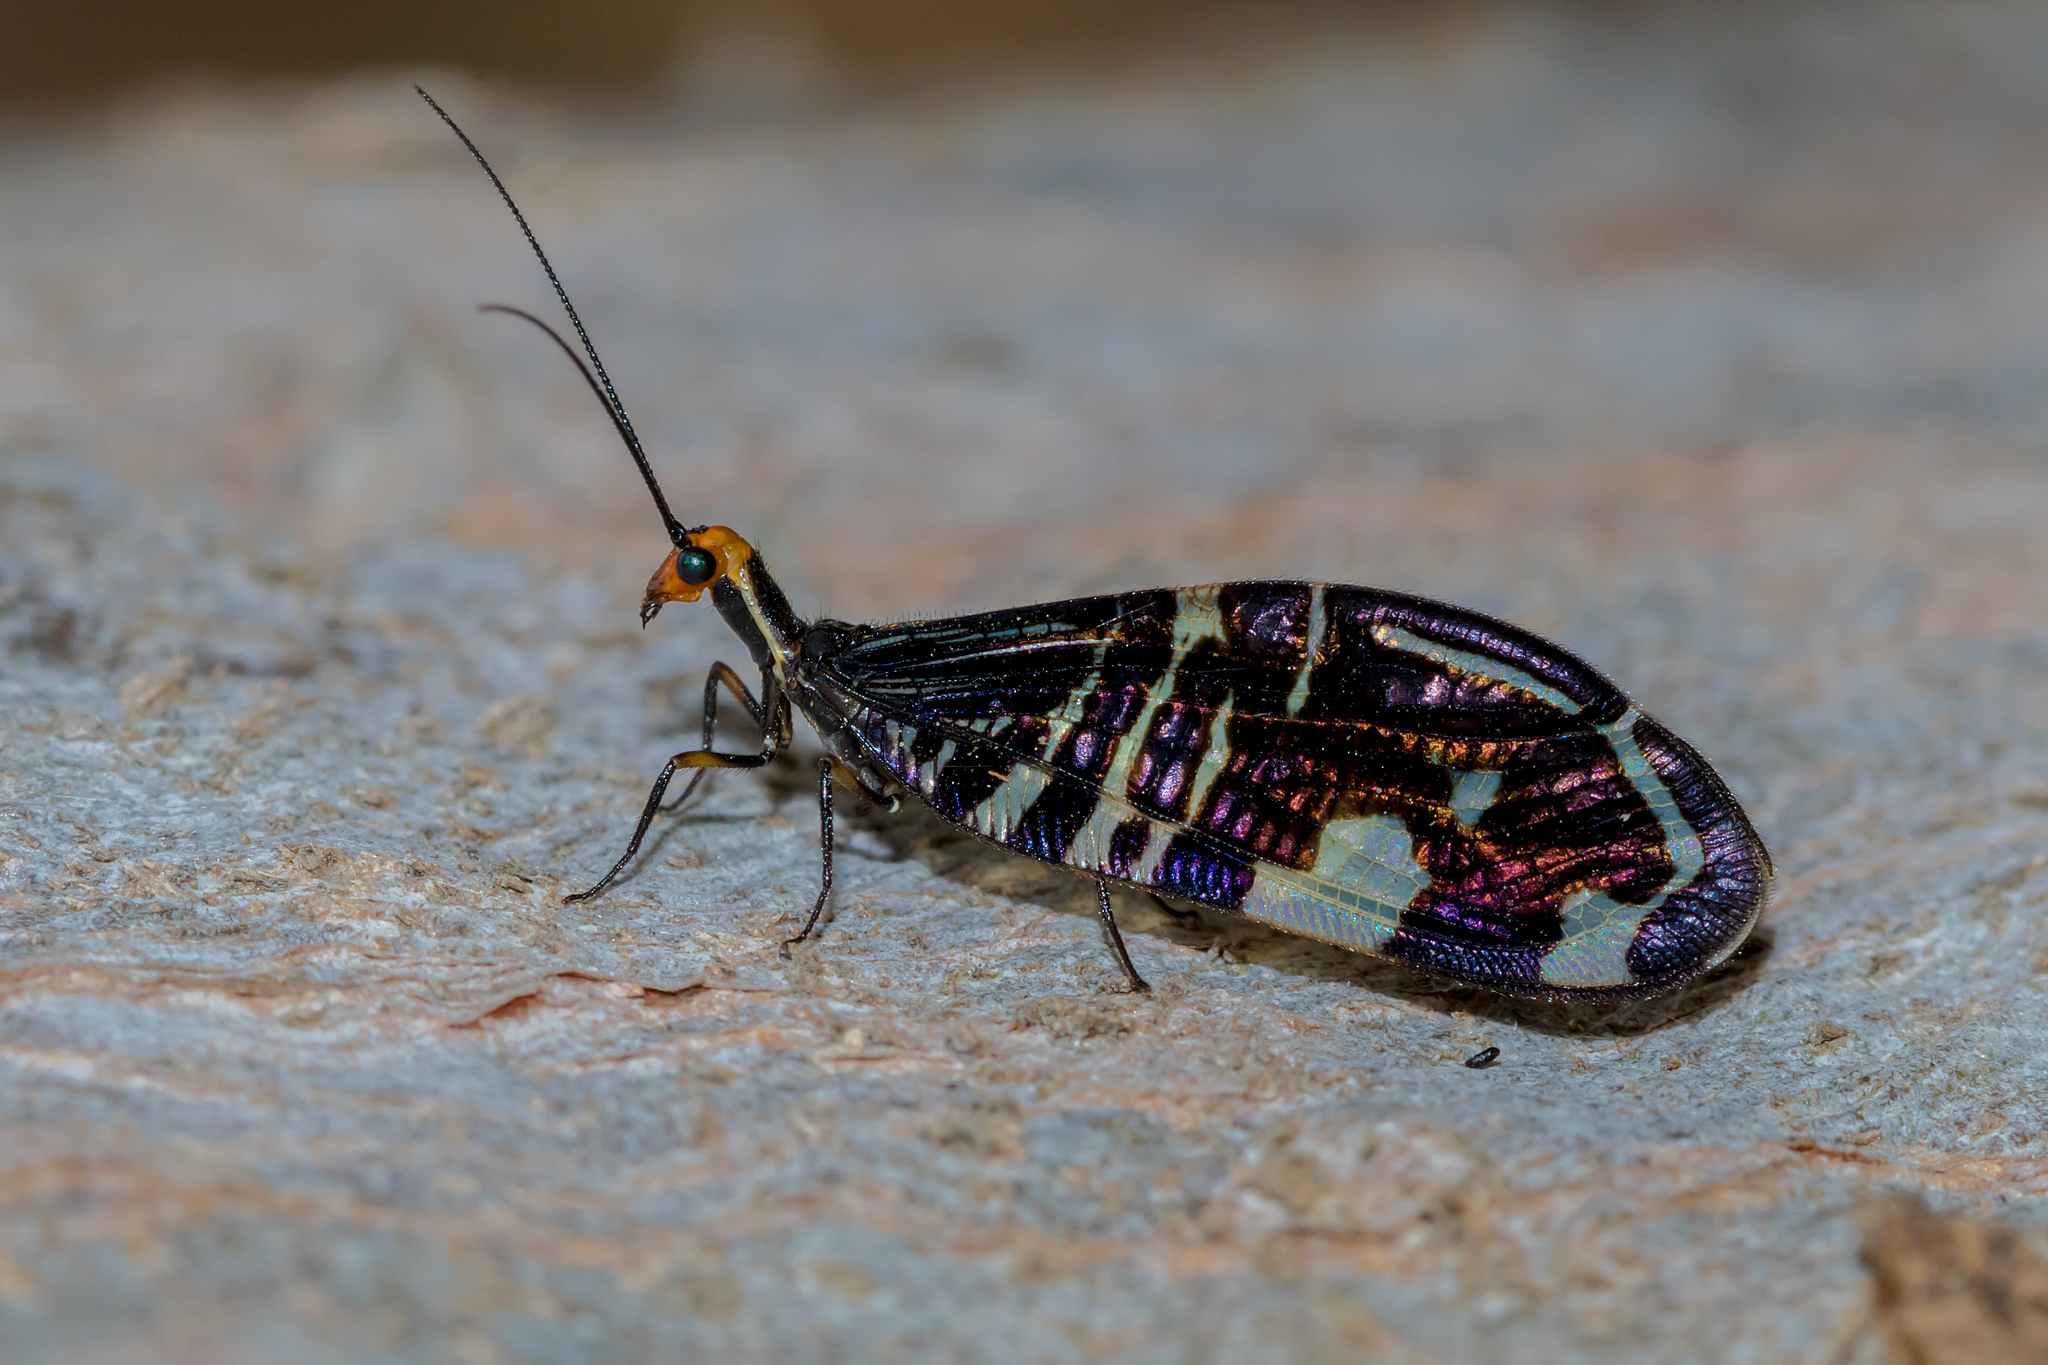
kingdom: Animalia
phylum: Arthropoda
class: Insecta
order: Neuroptera
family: Osmylidae
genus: Porismus
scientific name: Porismus strigatus
